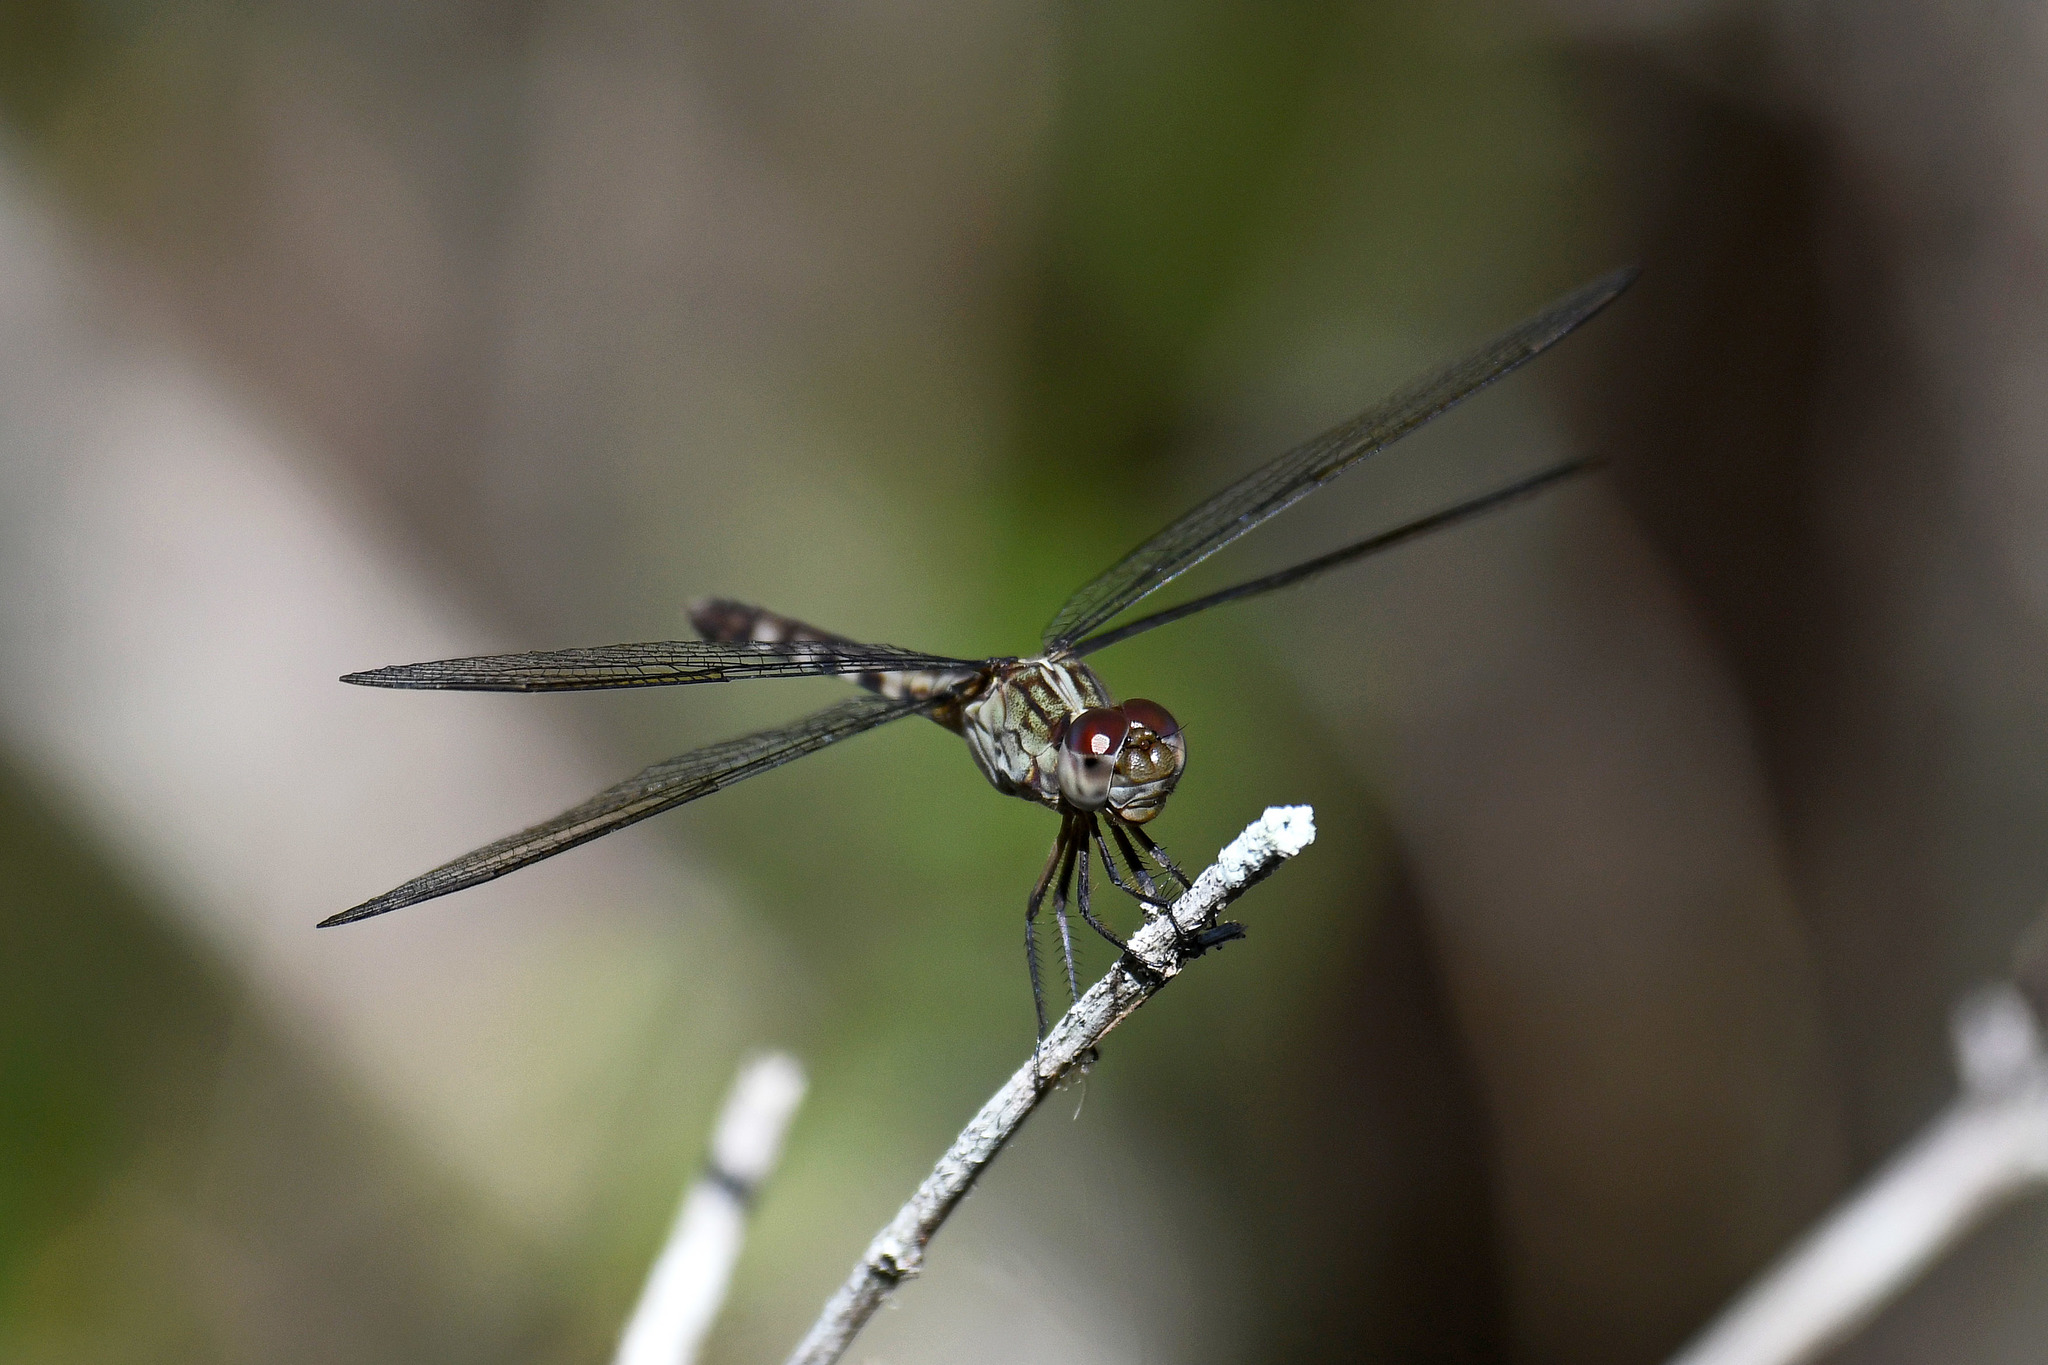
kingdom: Animalia
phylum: Arthropoda
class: Insecta
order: Odonata
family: Libellulidae
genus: Erythrodiplax
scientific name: Erythrodiplax umbrata
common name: Band-winged dragonlet
